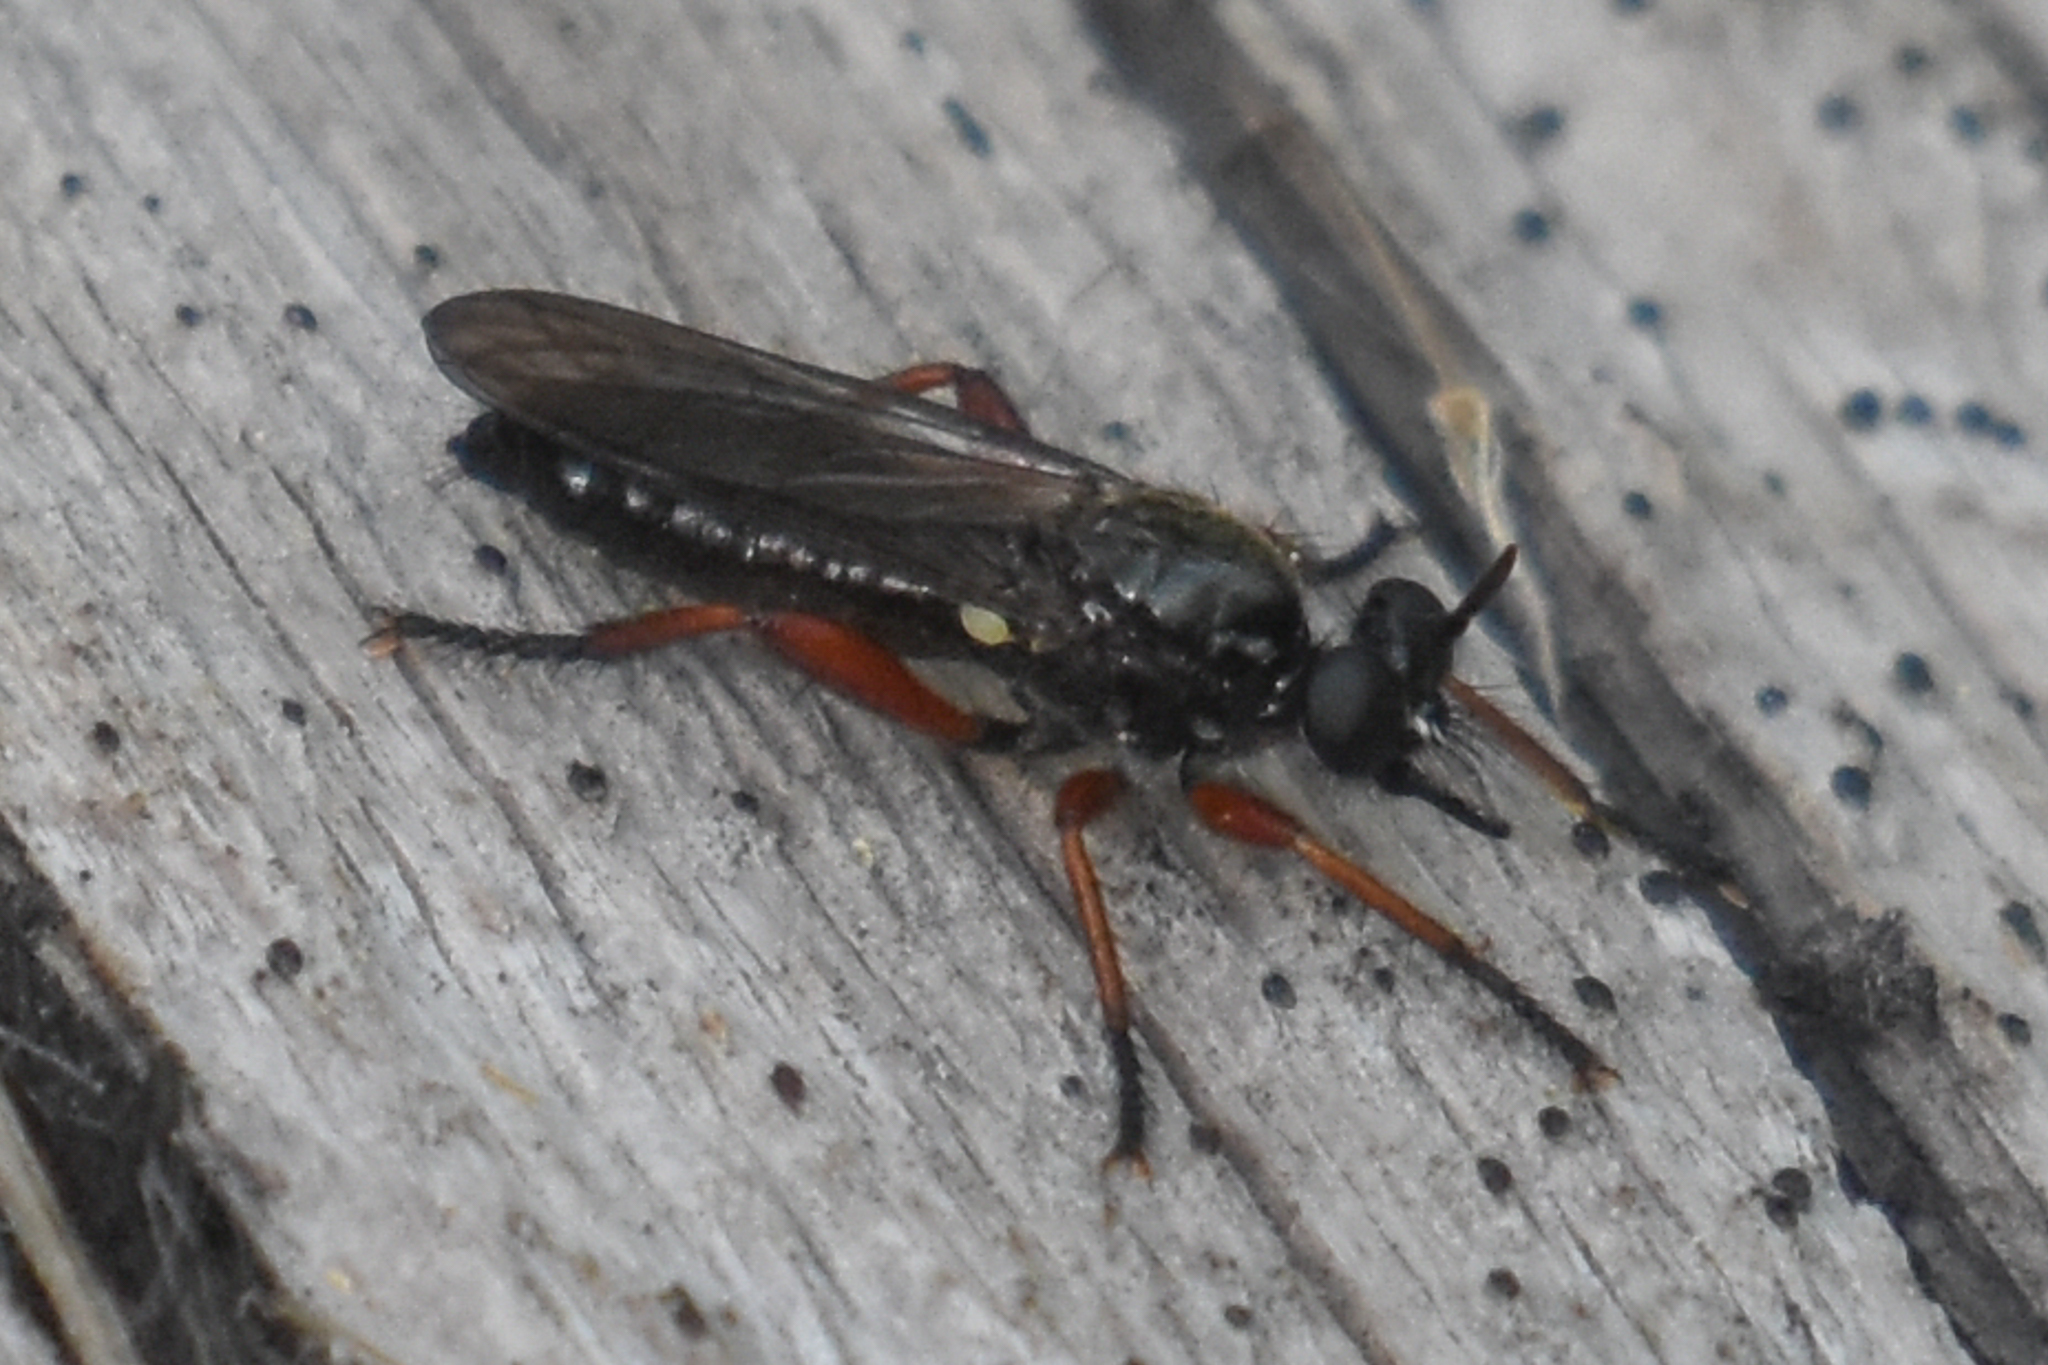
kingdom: Animalia
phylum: Arthropoda
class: Insecta
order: Diptera
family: Asilidae
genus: Laphria
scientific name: Laphria sadales
